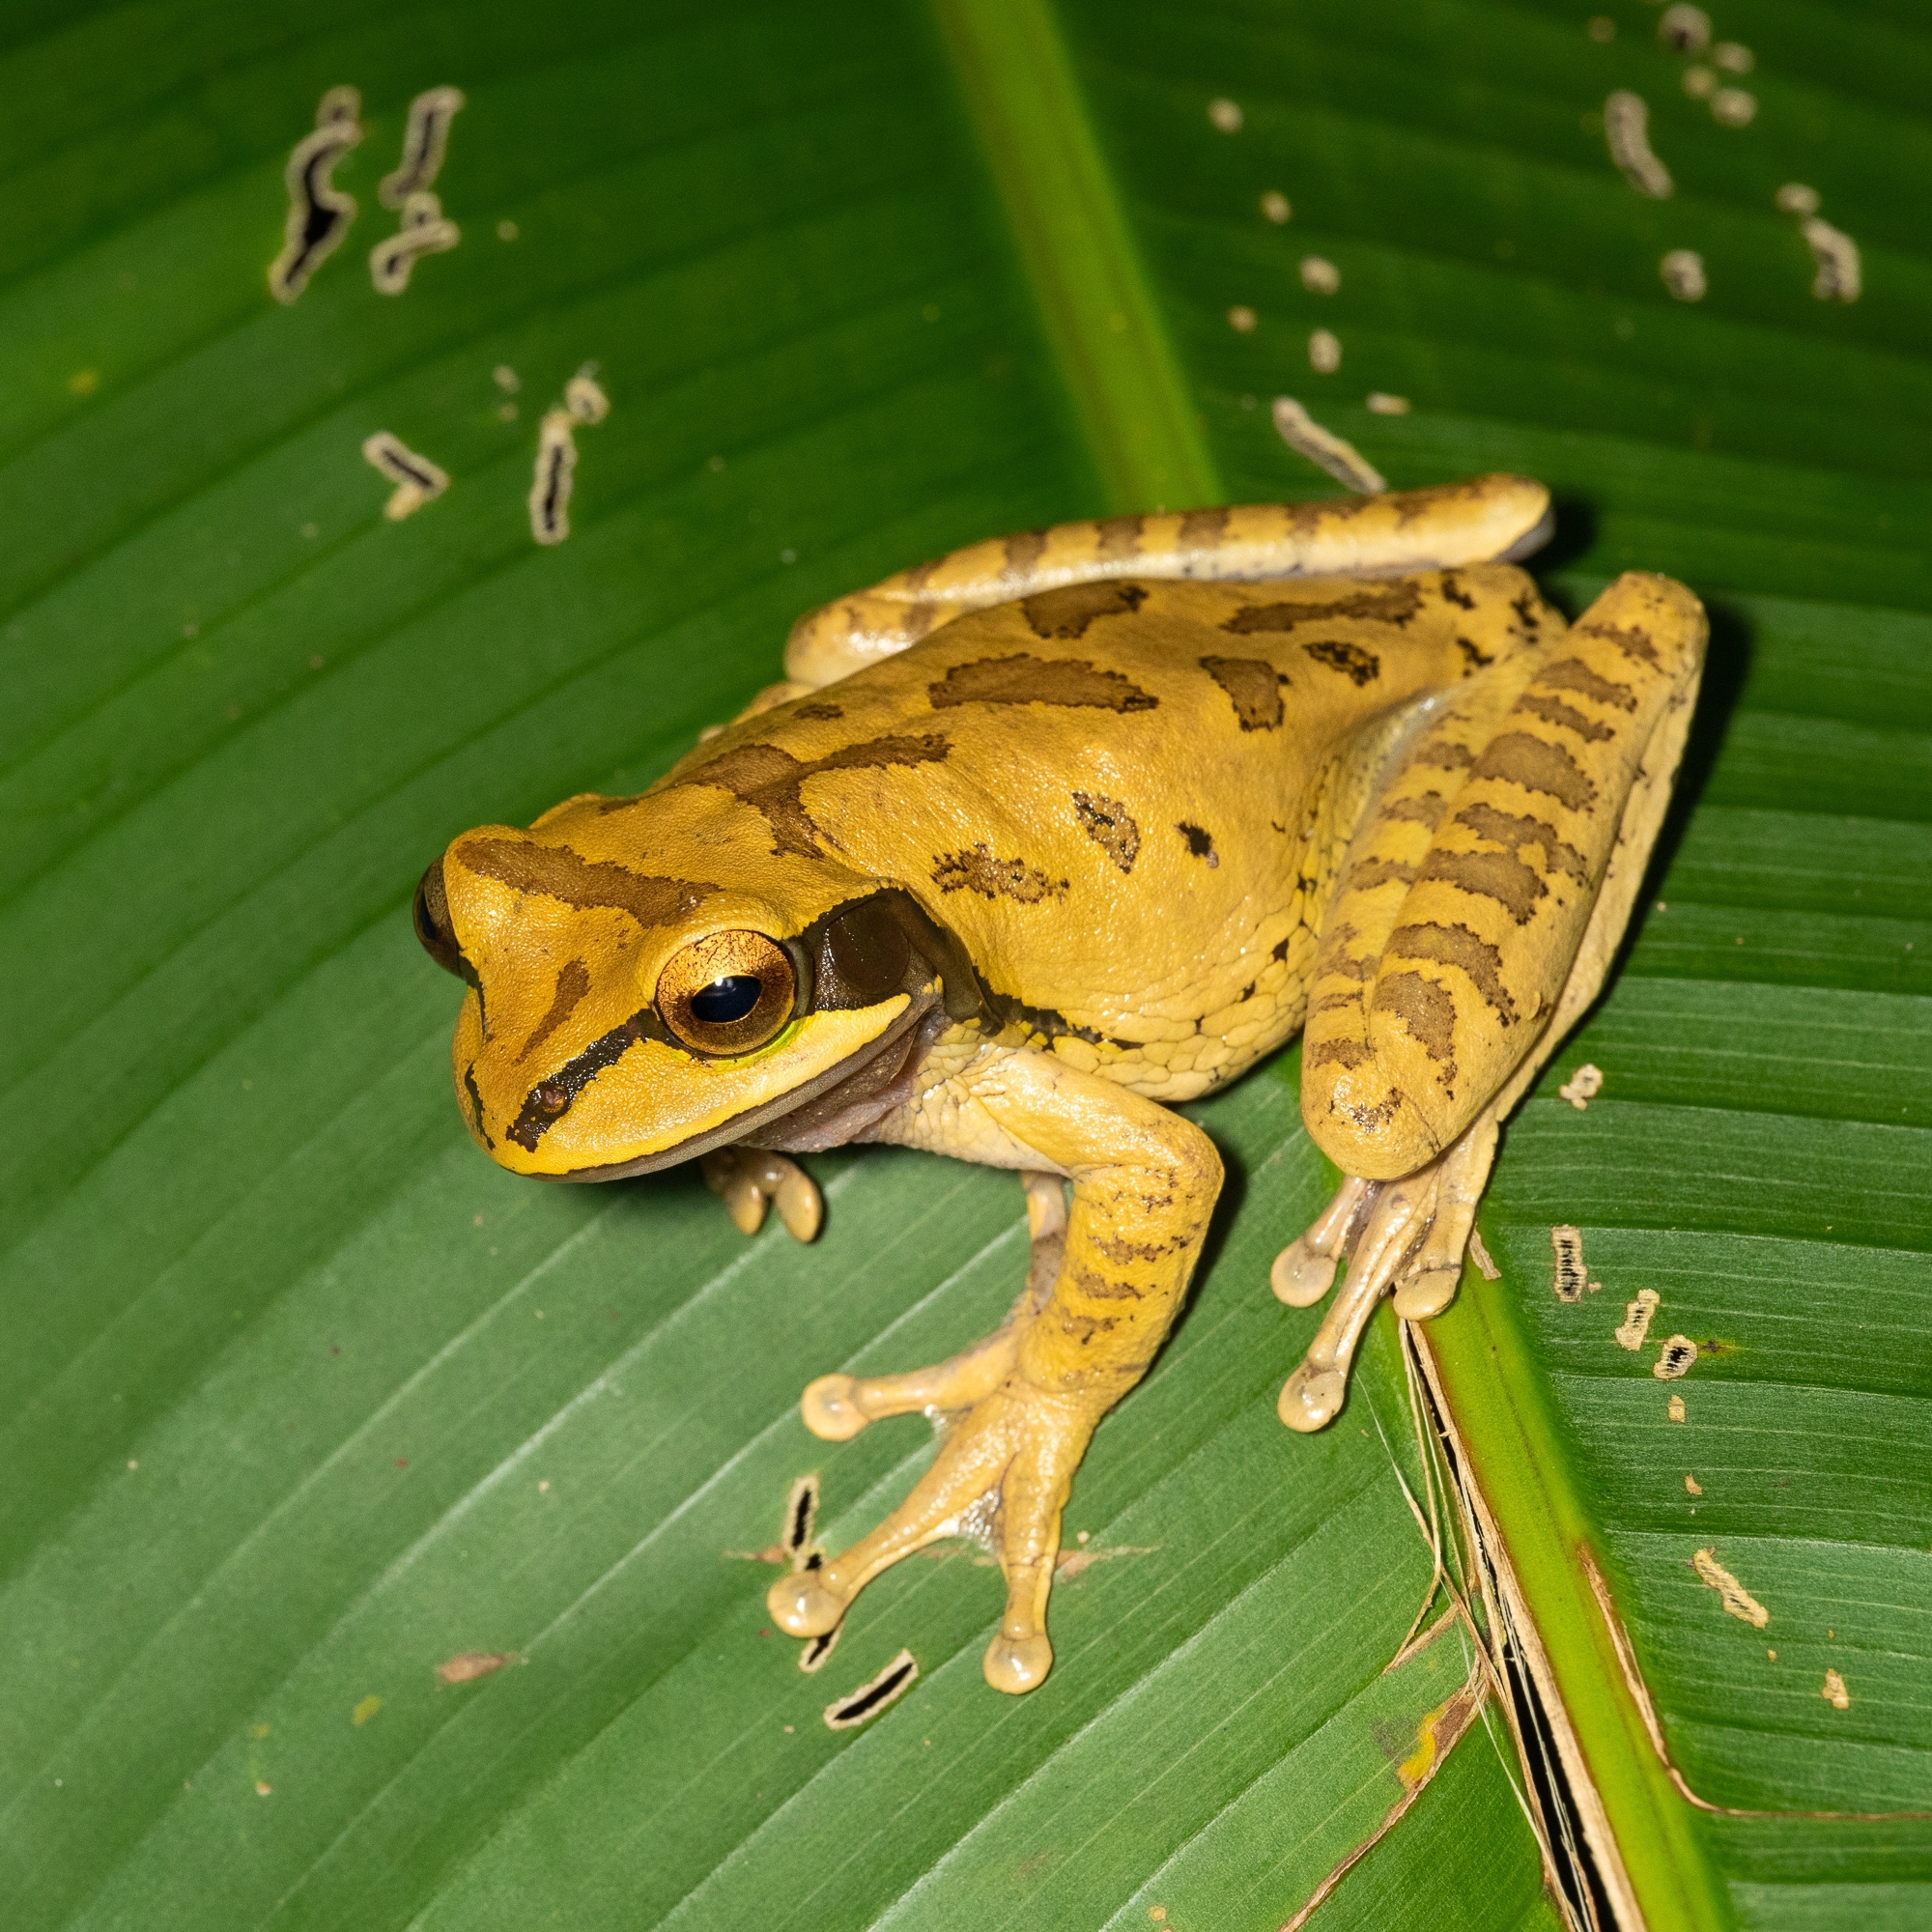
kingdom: Animalia
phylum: Chordata
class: Amphibia
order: Anura
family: Hylidae
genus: Smilisca
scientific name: Smilisca phaeota
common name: Central american smilisca
